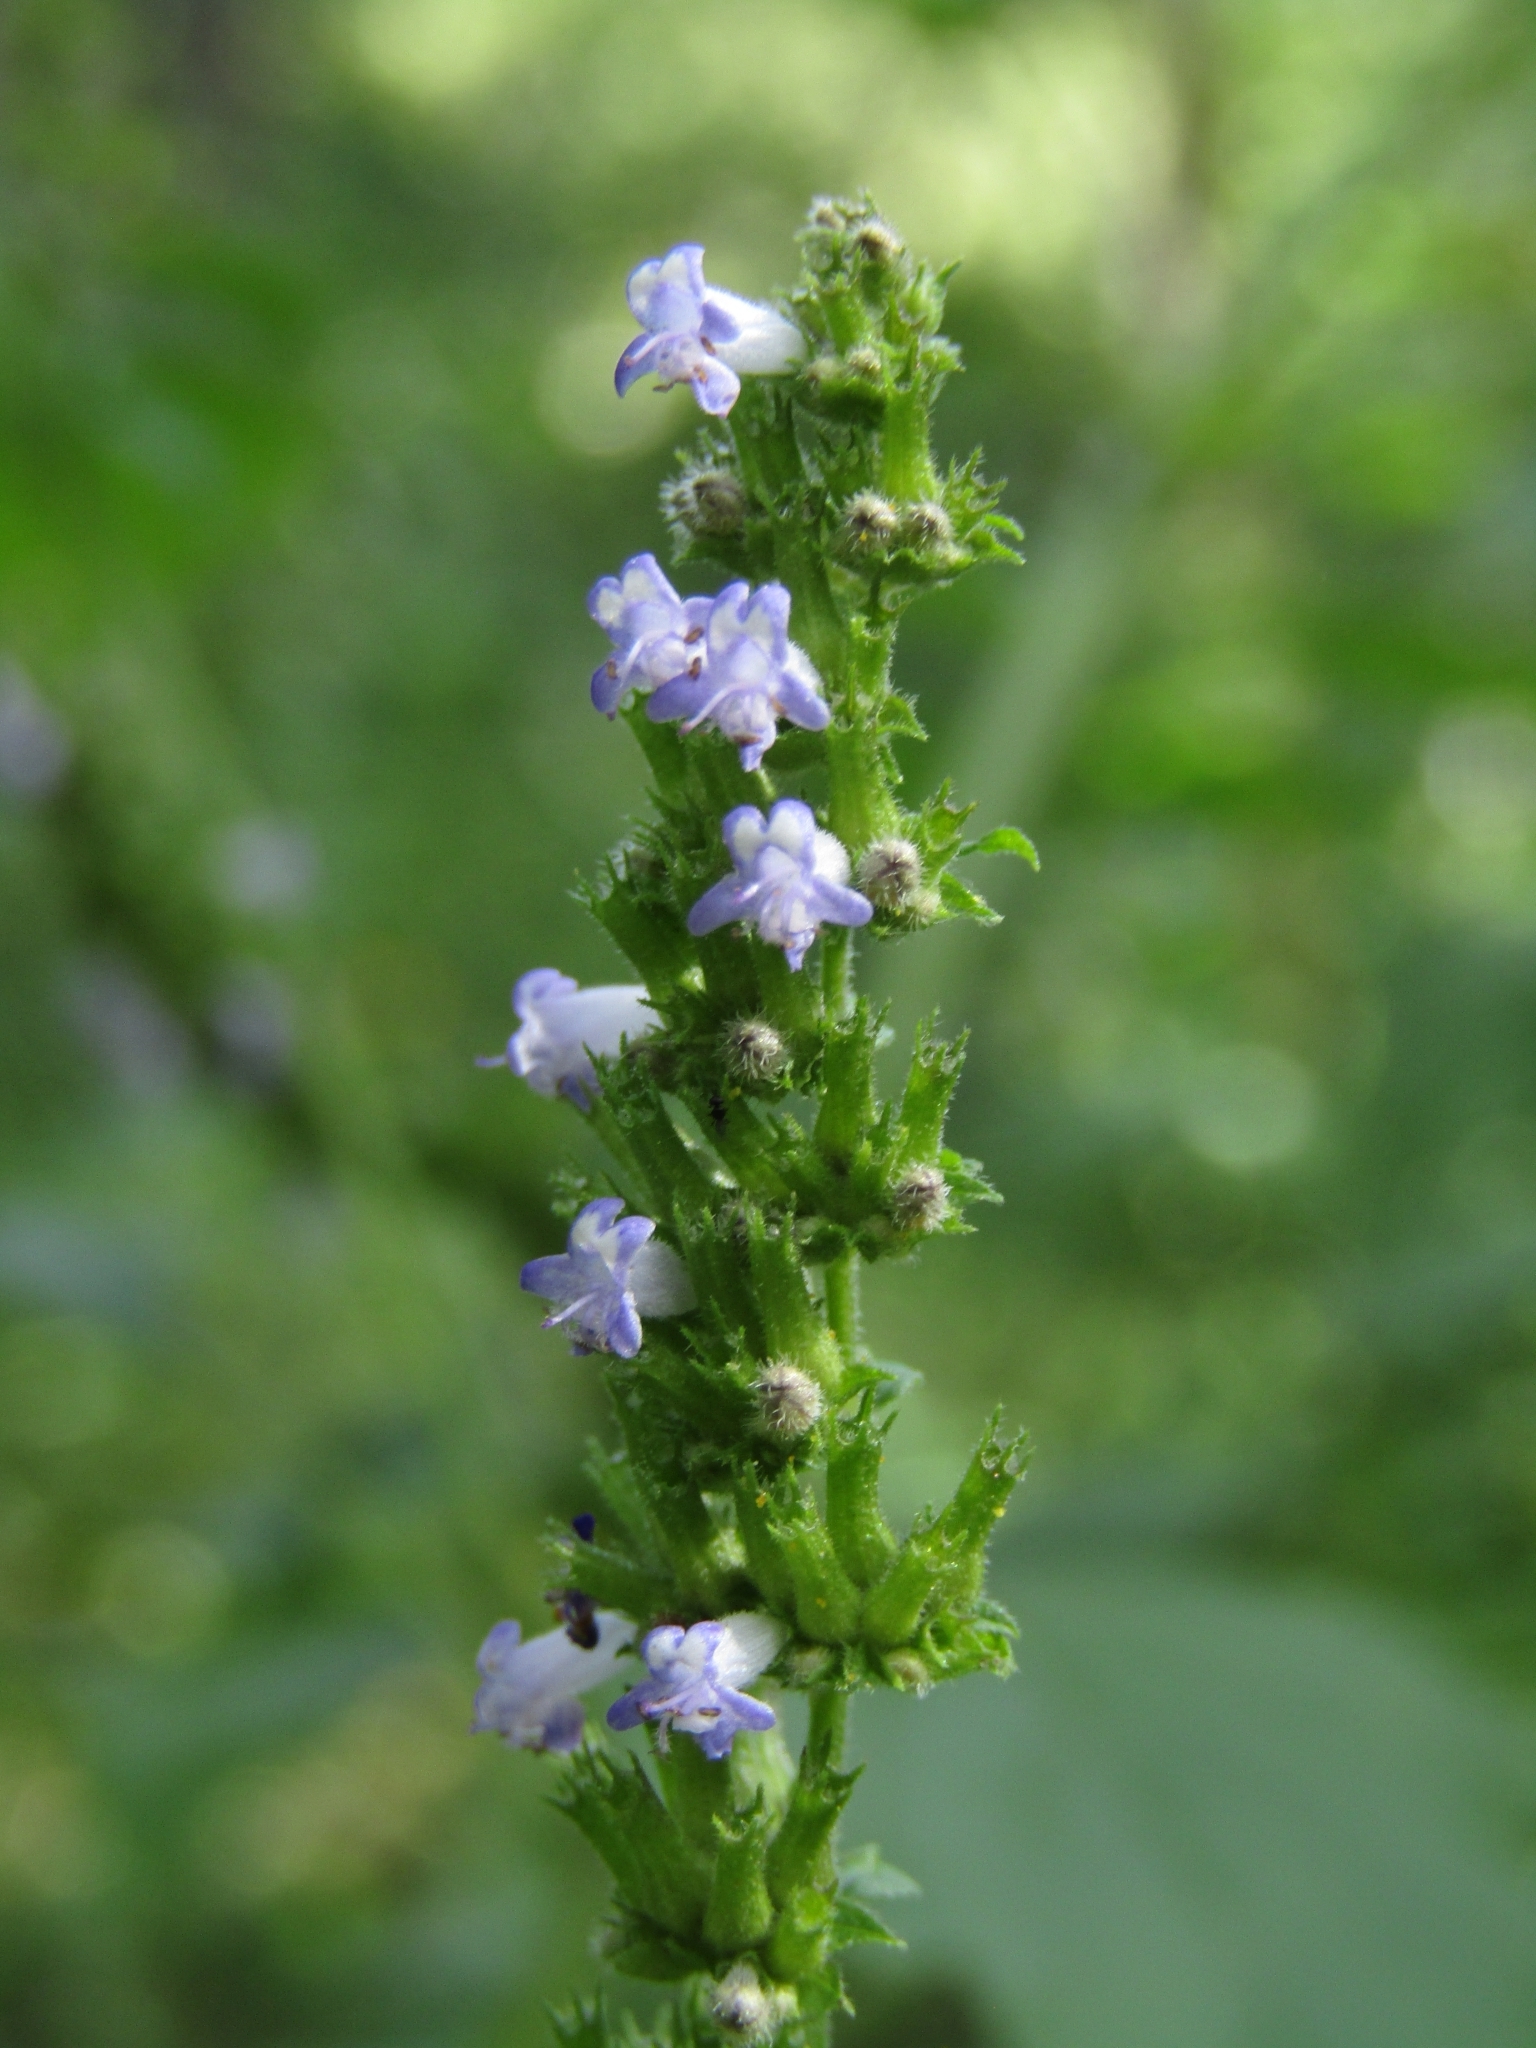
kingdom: Plantae
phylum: Tracheophyta
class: Magnoliopsida
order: Lamiales
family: Lamiaceae
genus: Cantinoa
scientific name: Cantinoa mutabilis
